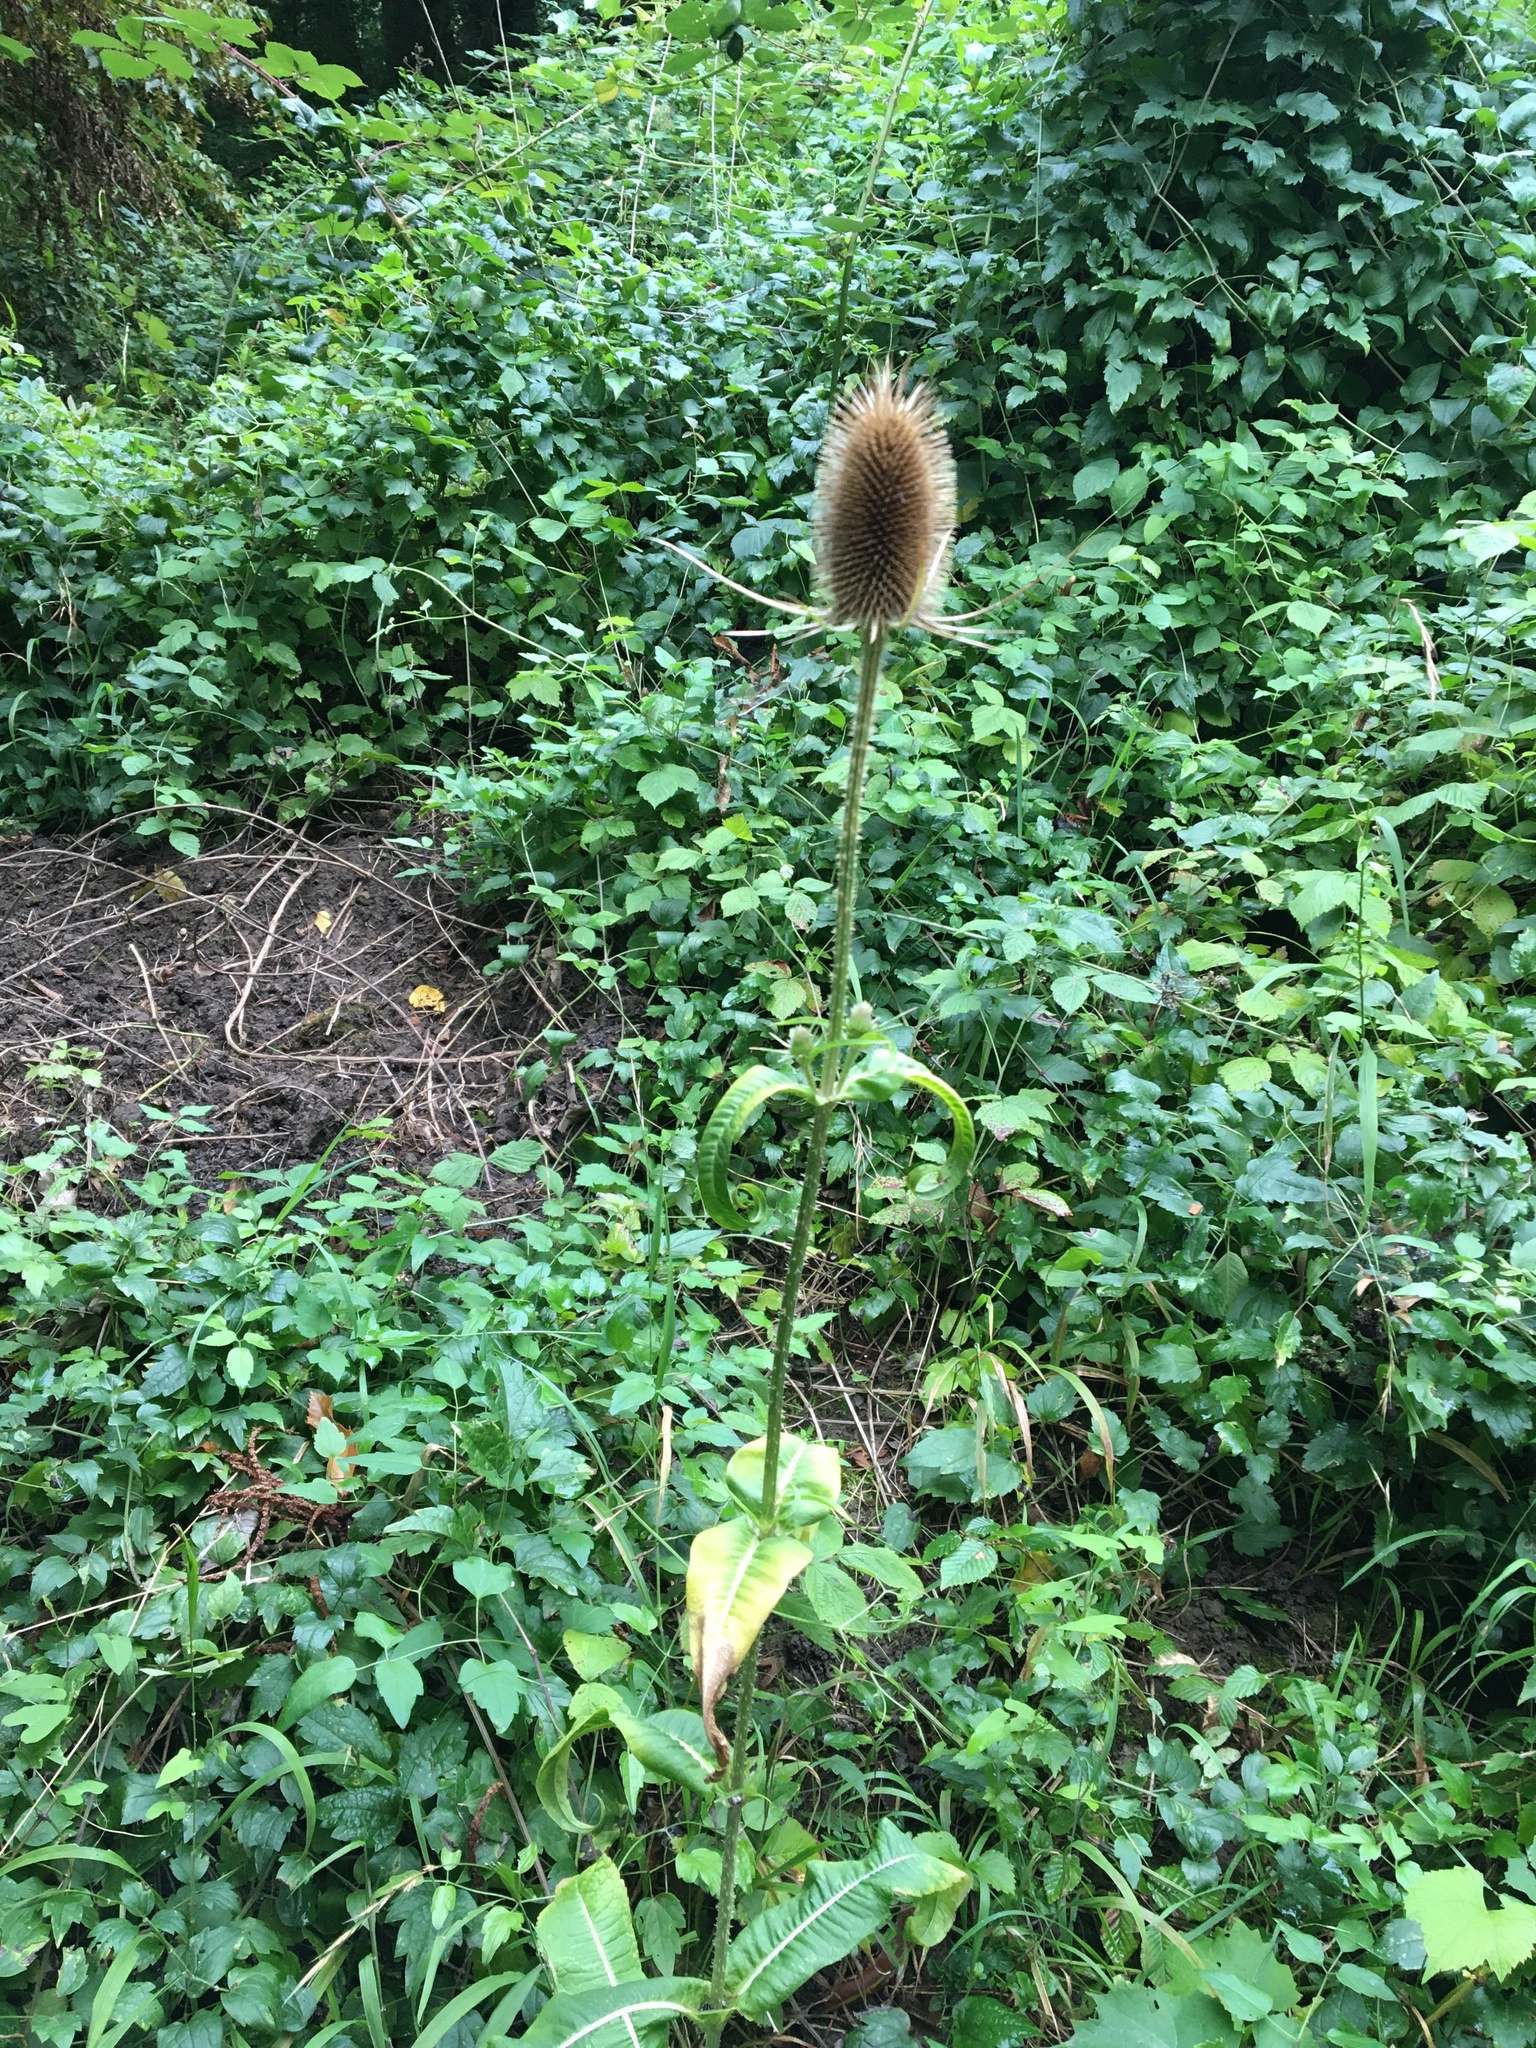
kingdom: Plantae
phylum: Tracheophyta
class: Magnoliopsida
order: Dipsacales
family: Caprifoliaceae
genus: Dipsacus
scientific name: Dipsacus fullonum
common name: Teasel
